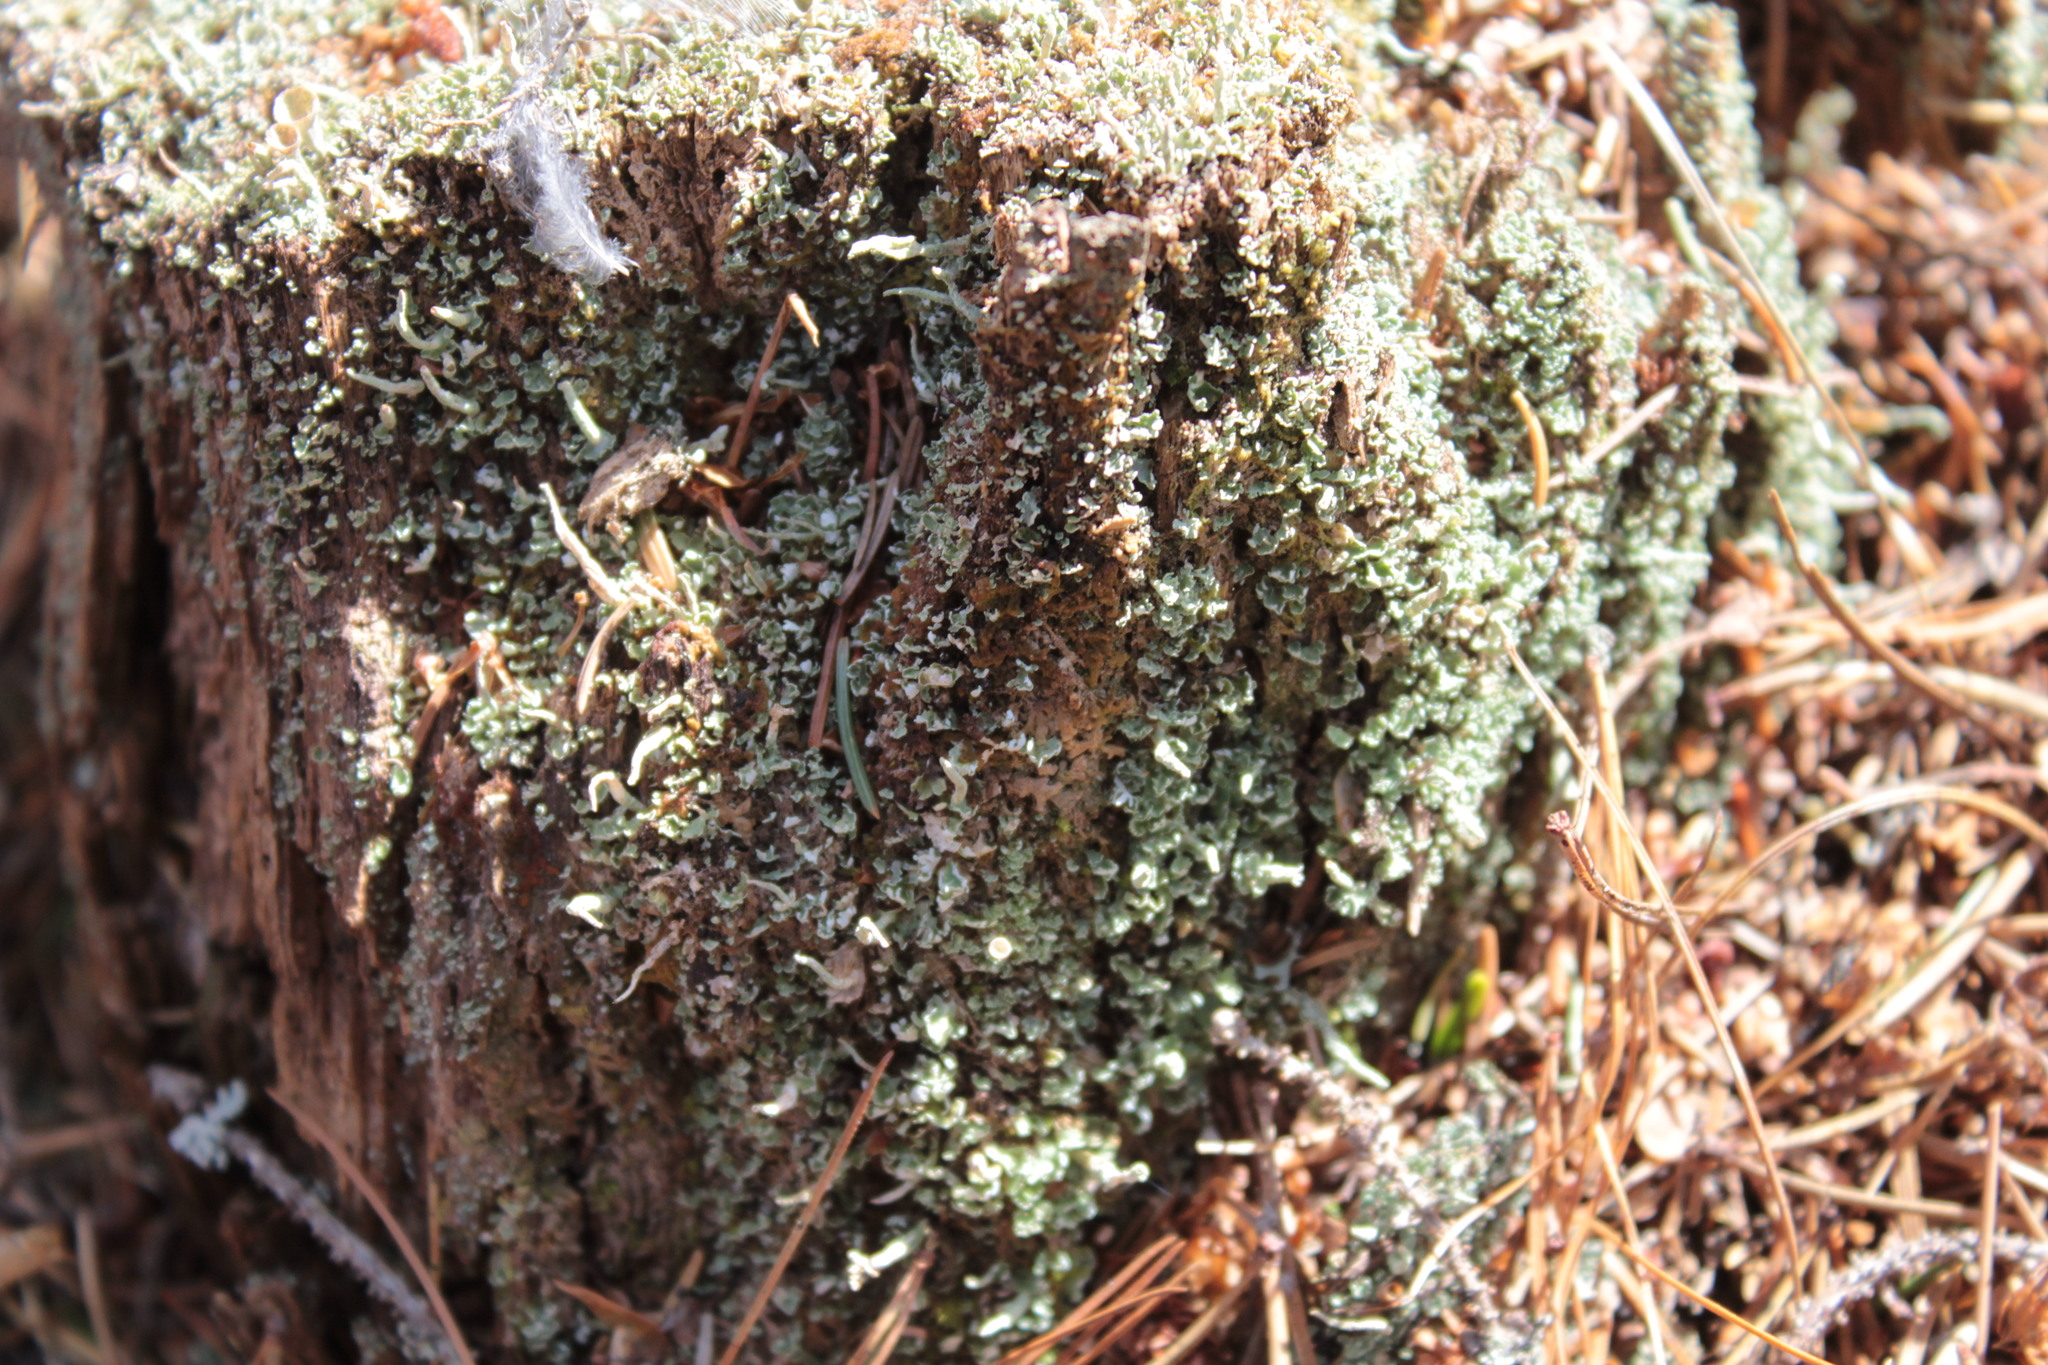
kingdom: Fungi
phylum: Ascomycota
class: Lecanoromycetes
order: Lecanorales
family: Cladoniaceae
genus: Cladonia
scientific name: Cladonia coniocraea
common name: Common powderhorn
